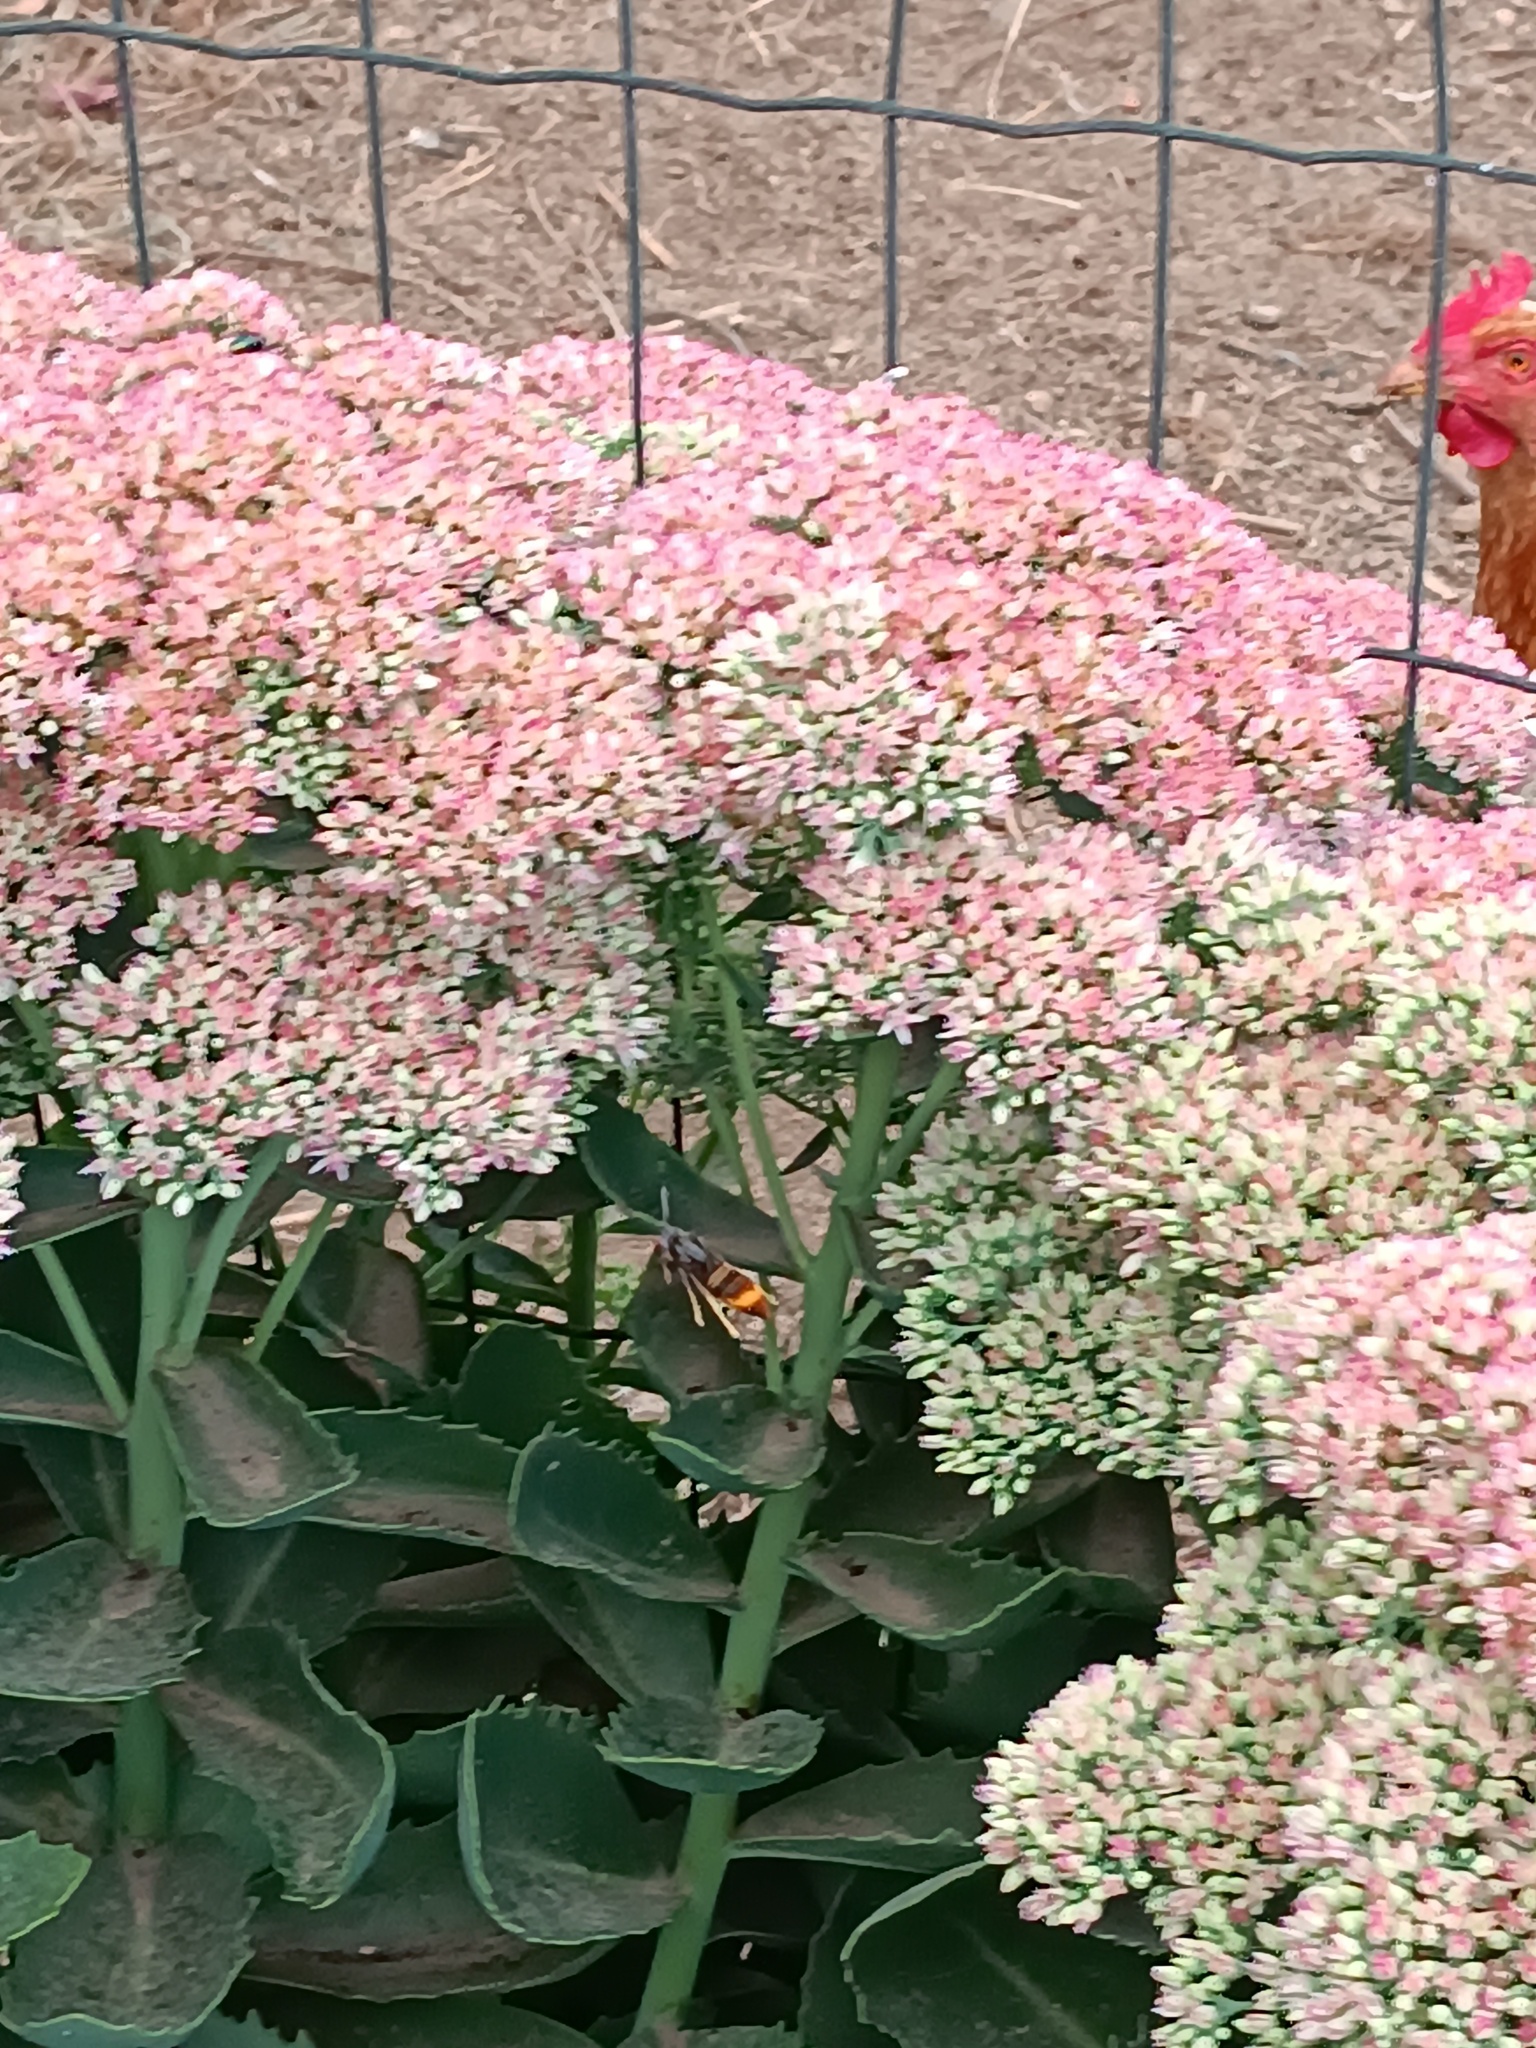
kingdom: Animalia
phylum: Arthropoda
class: Insecta
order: Hymenoptera
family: Vespidae
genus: Vespa
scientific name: Vespa velutina
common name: Asian hornet
